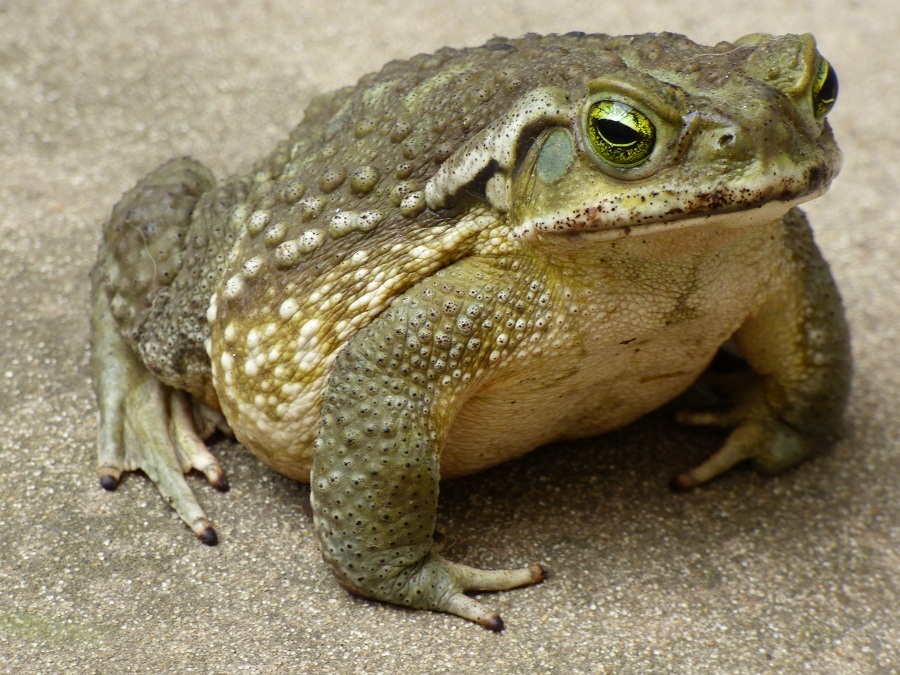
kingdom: Animalia
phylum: Chordata
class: Amphibia
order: Anura
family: Bufonidae
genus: Rhinella
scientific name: Rhinella arenarum
